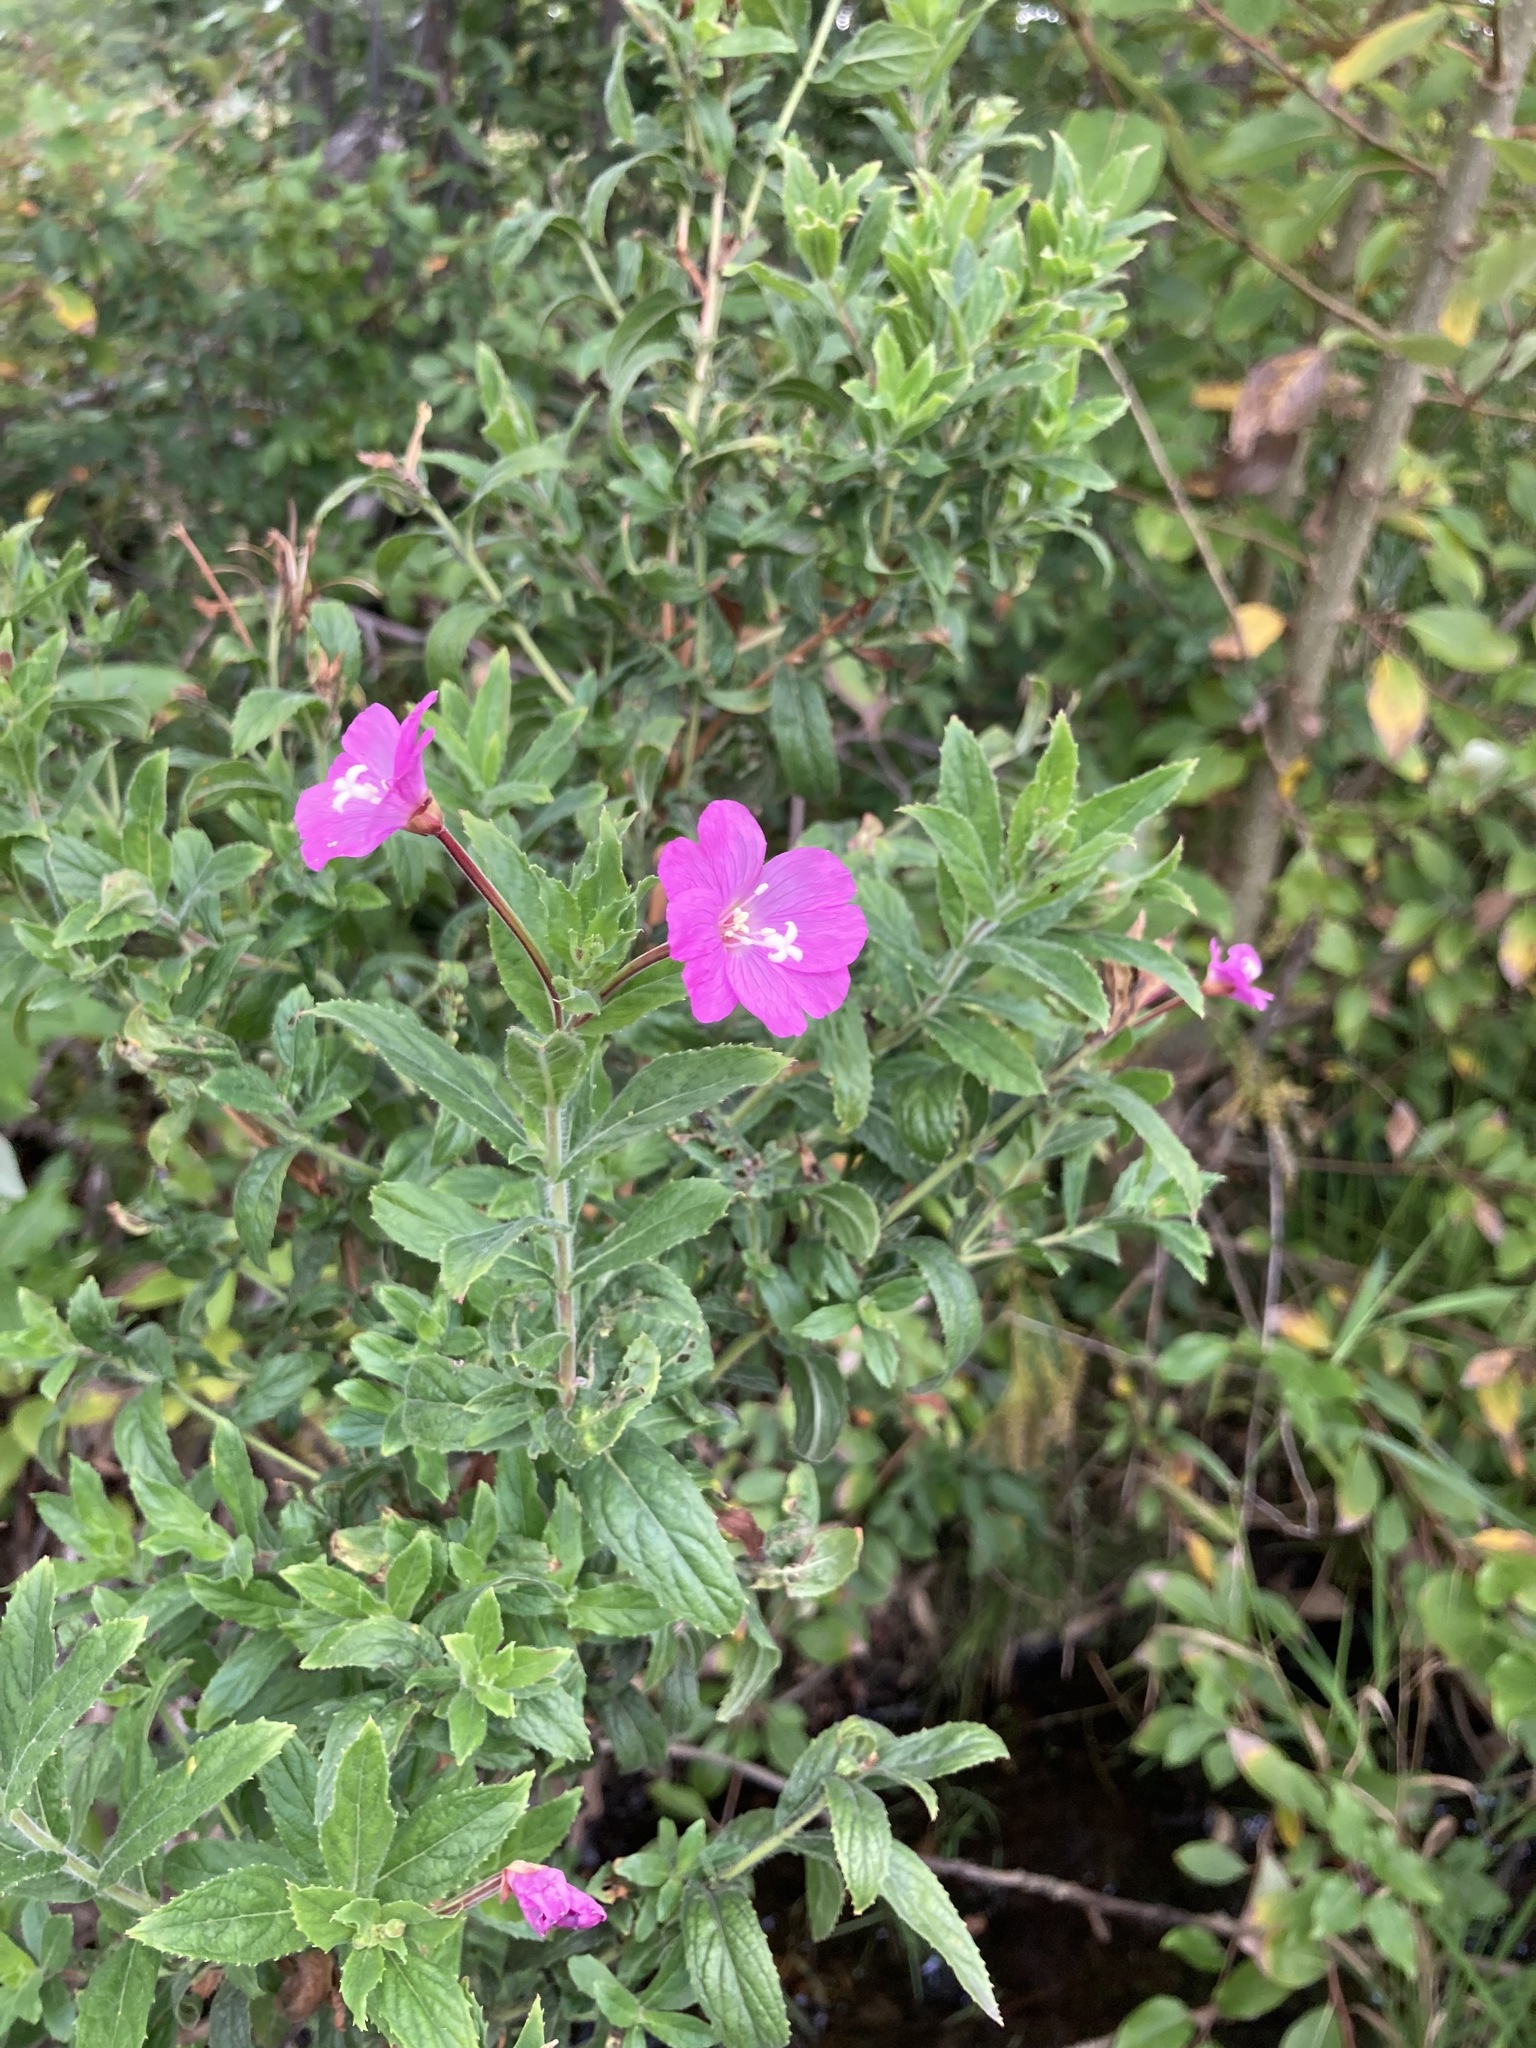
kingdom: Plantae
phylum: Tracheophyta
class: Magnoliopsida
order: Myrtales
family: Onagraceae
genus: Epilobium
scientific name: Epilobium hirsutum
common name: Great willowherb
